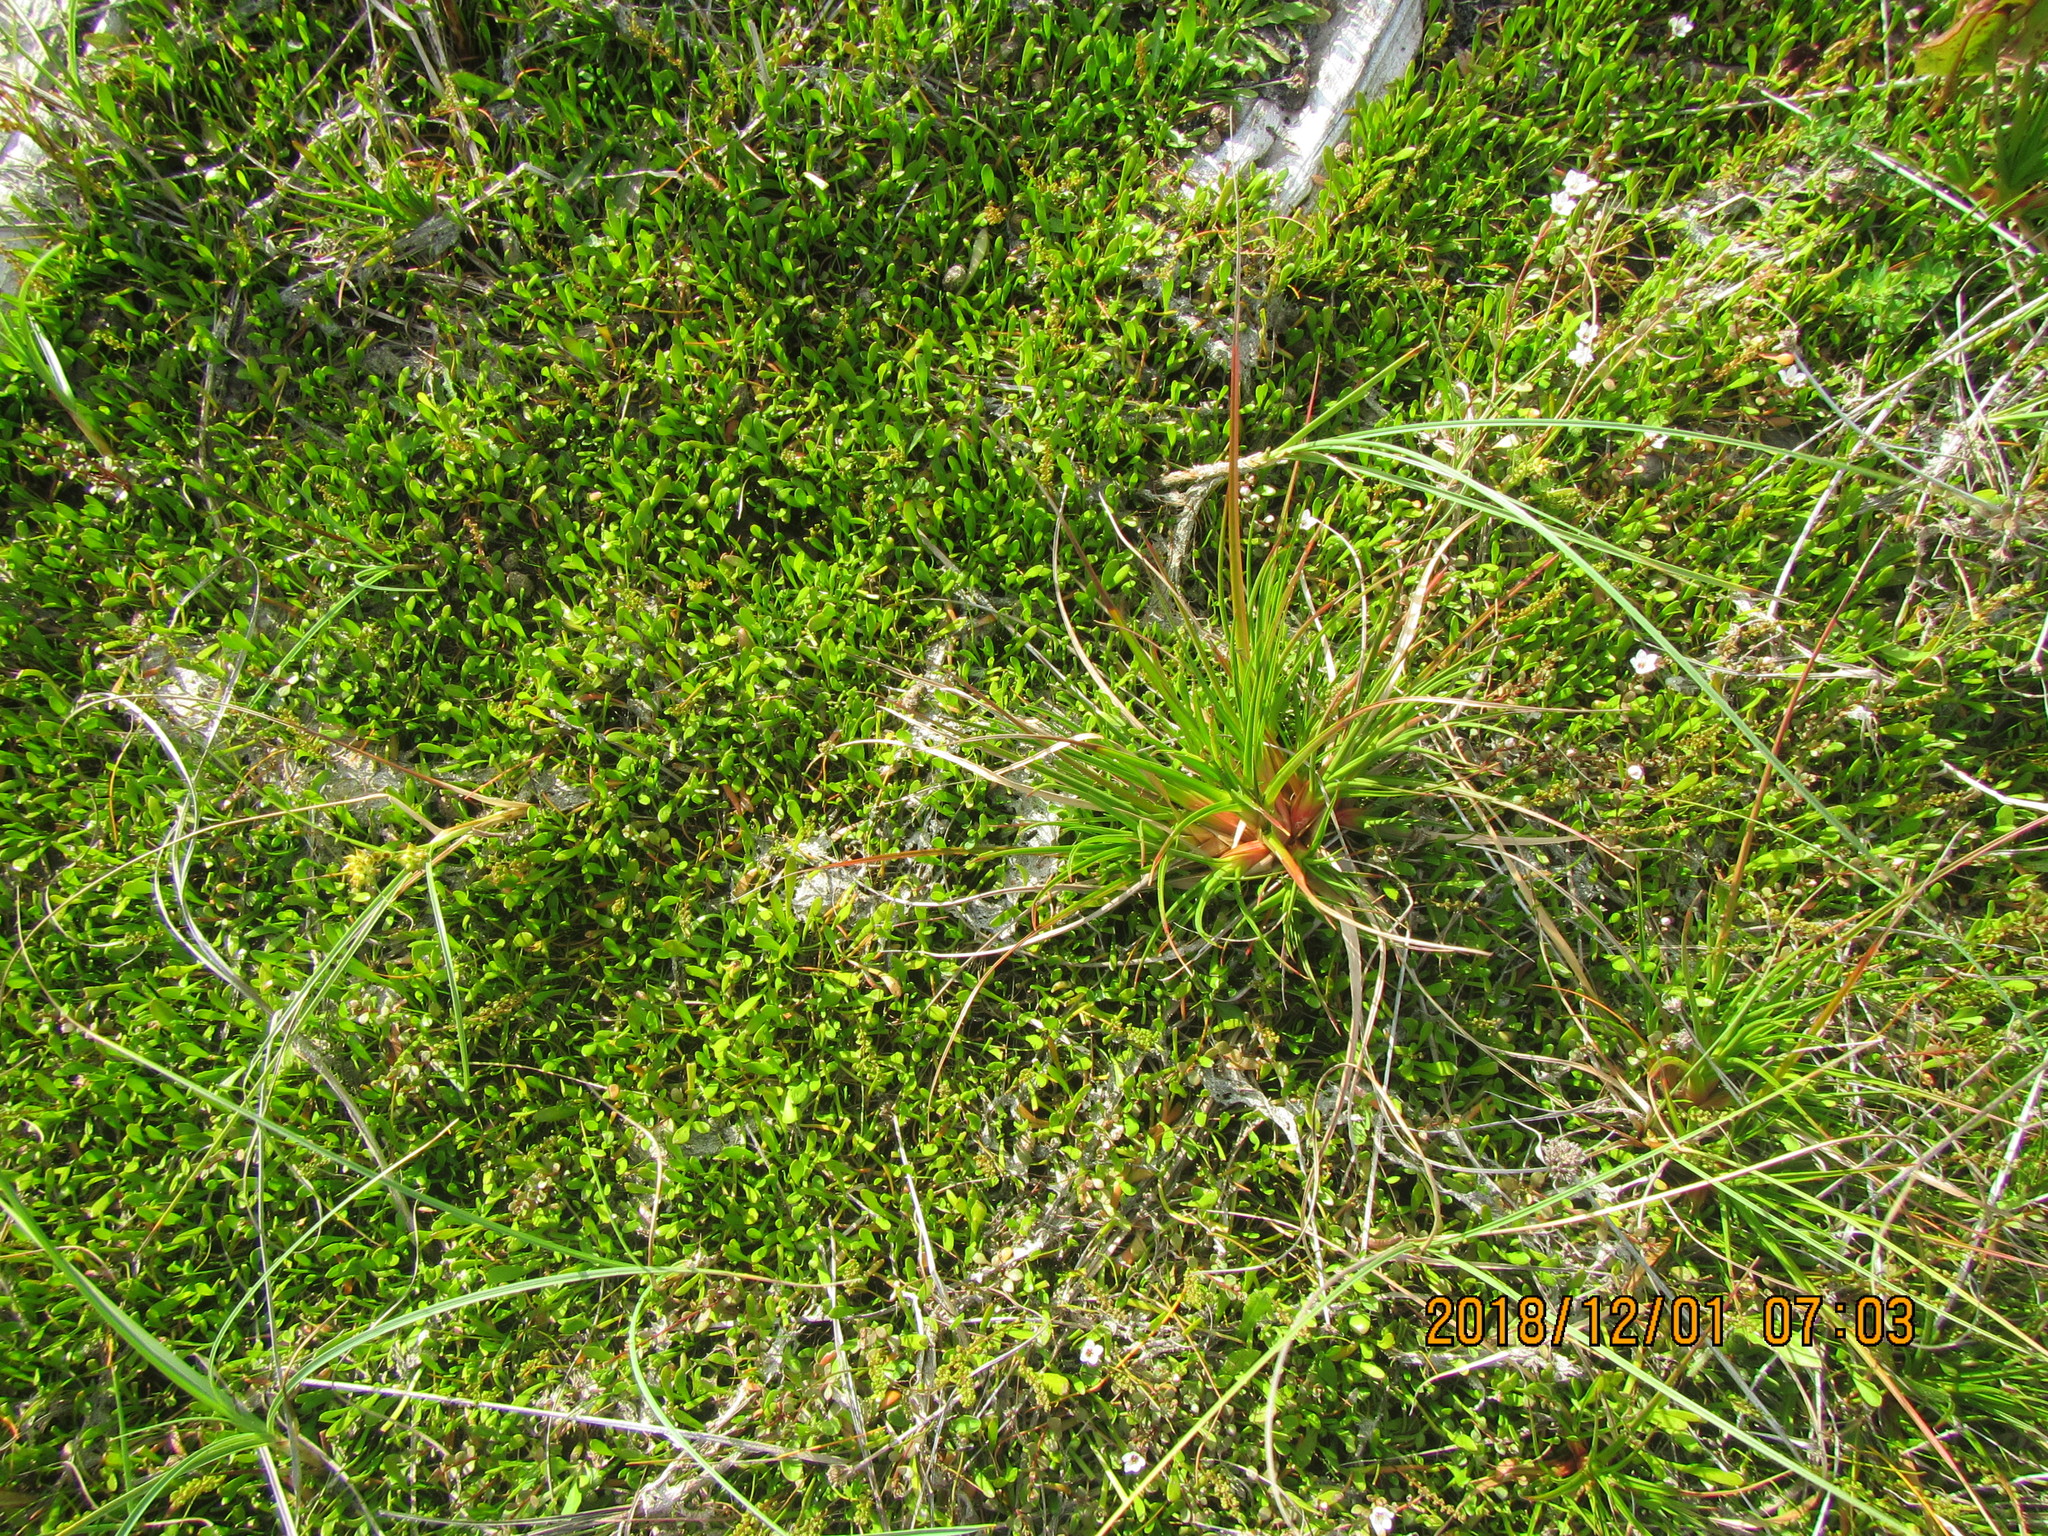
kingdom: Plantae
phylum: Tracheophyta
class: Liliopsida
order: Poales
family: Juncaceae
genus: Juncus
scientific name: Juncus caespiticius
